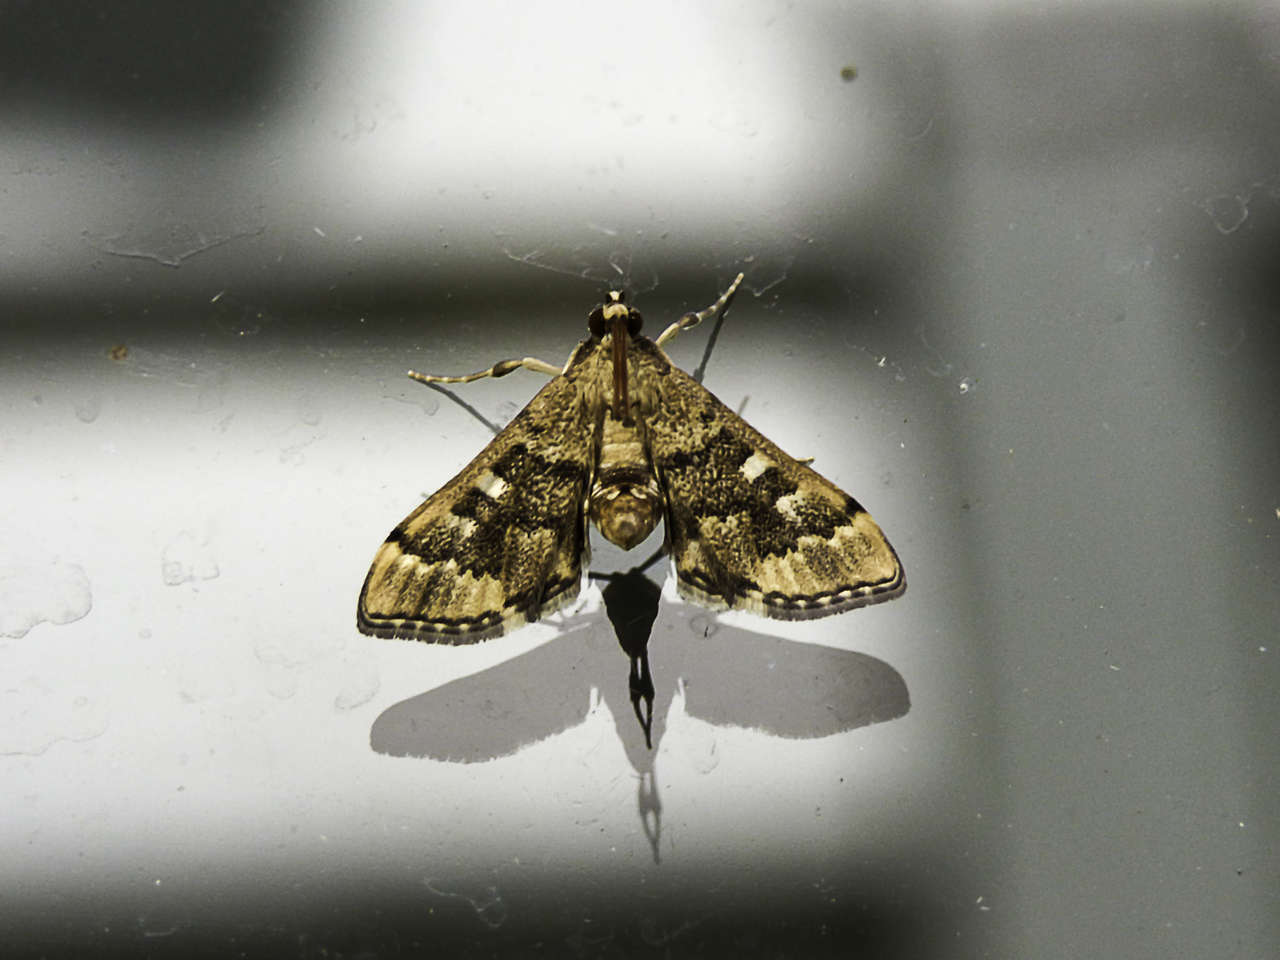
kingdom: Animalia
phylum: Arthropoda
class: Insecta
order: Lepidoptera
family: Crambidae
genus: Nacoleia
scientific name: Nacoleia rhoeoalis
